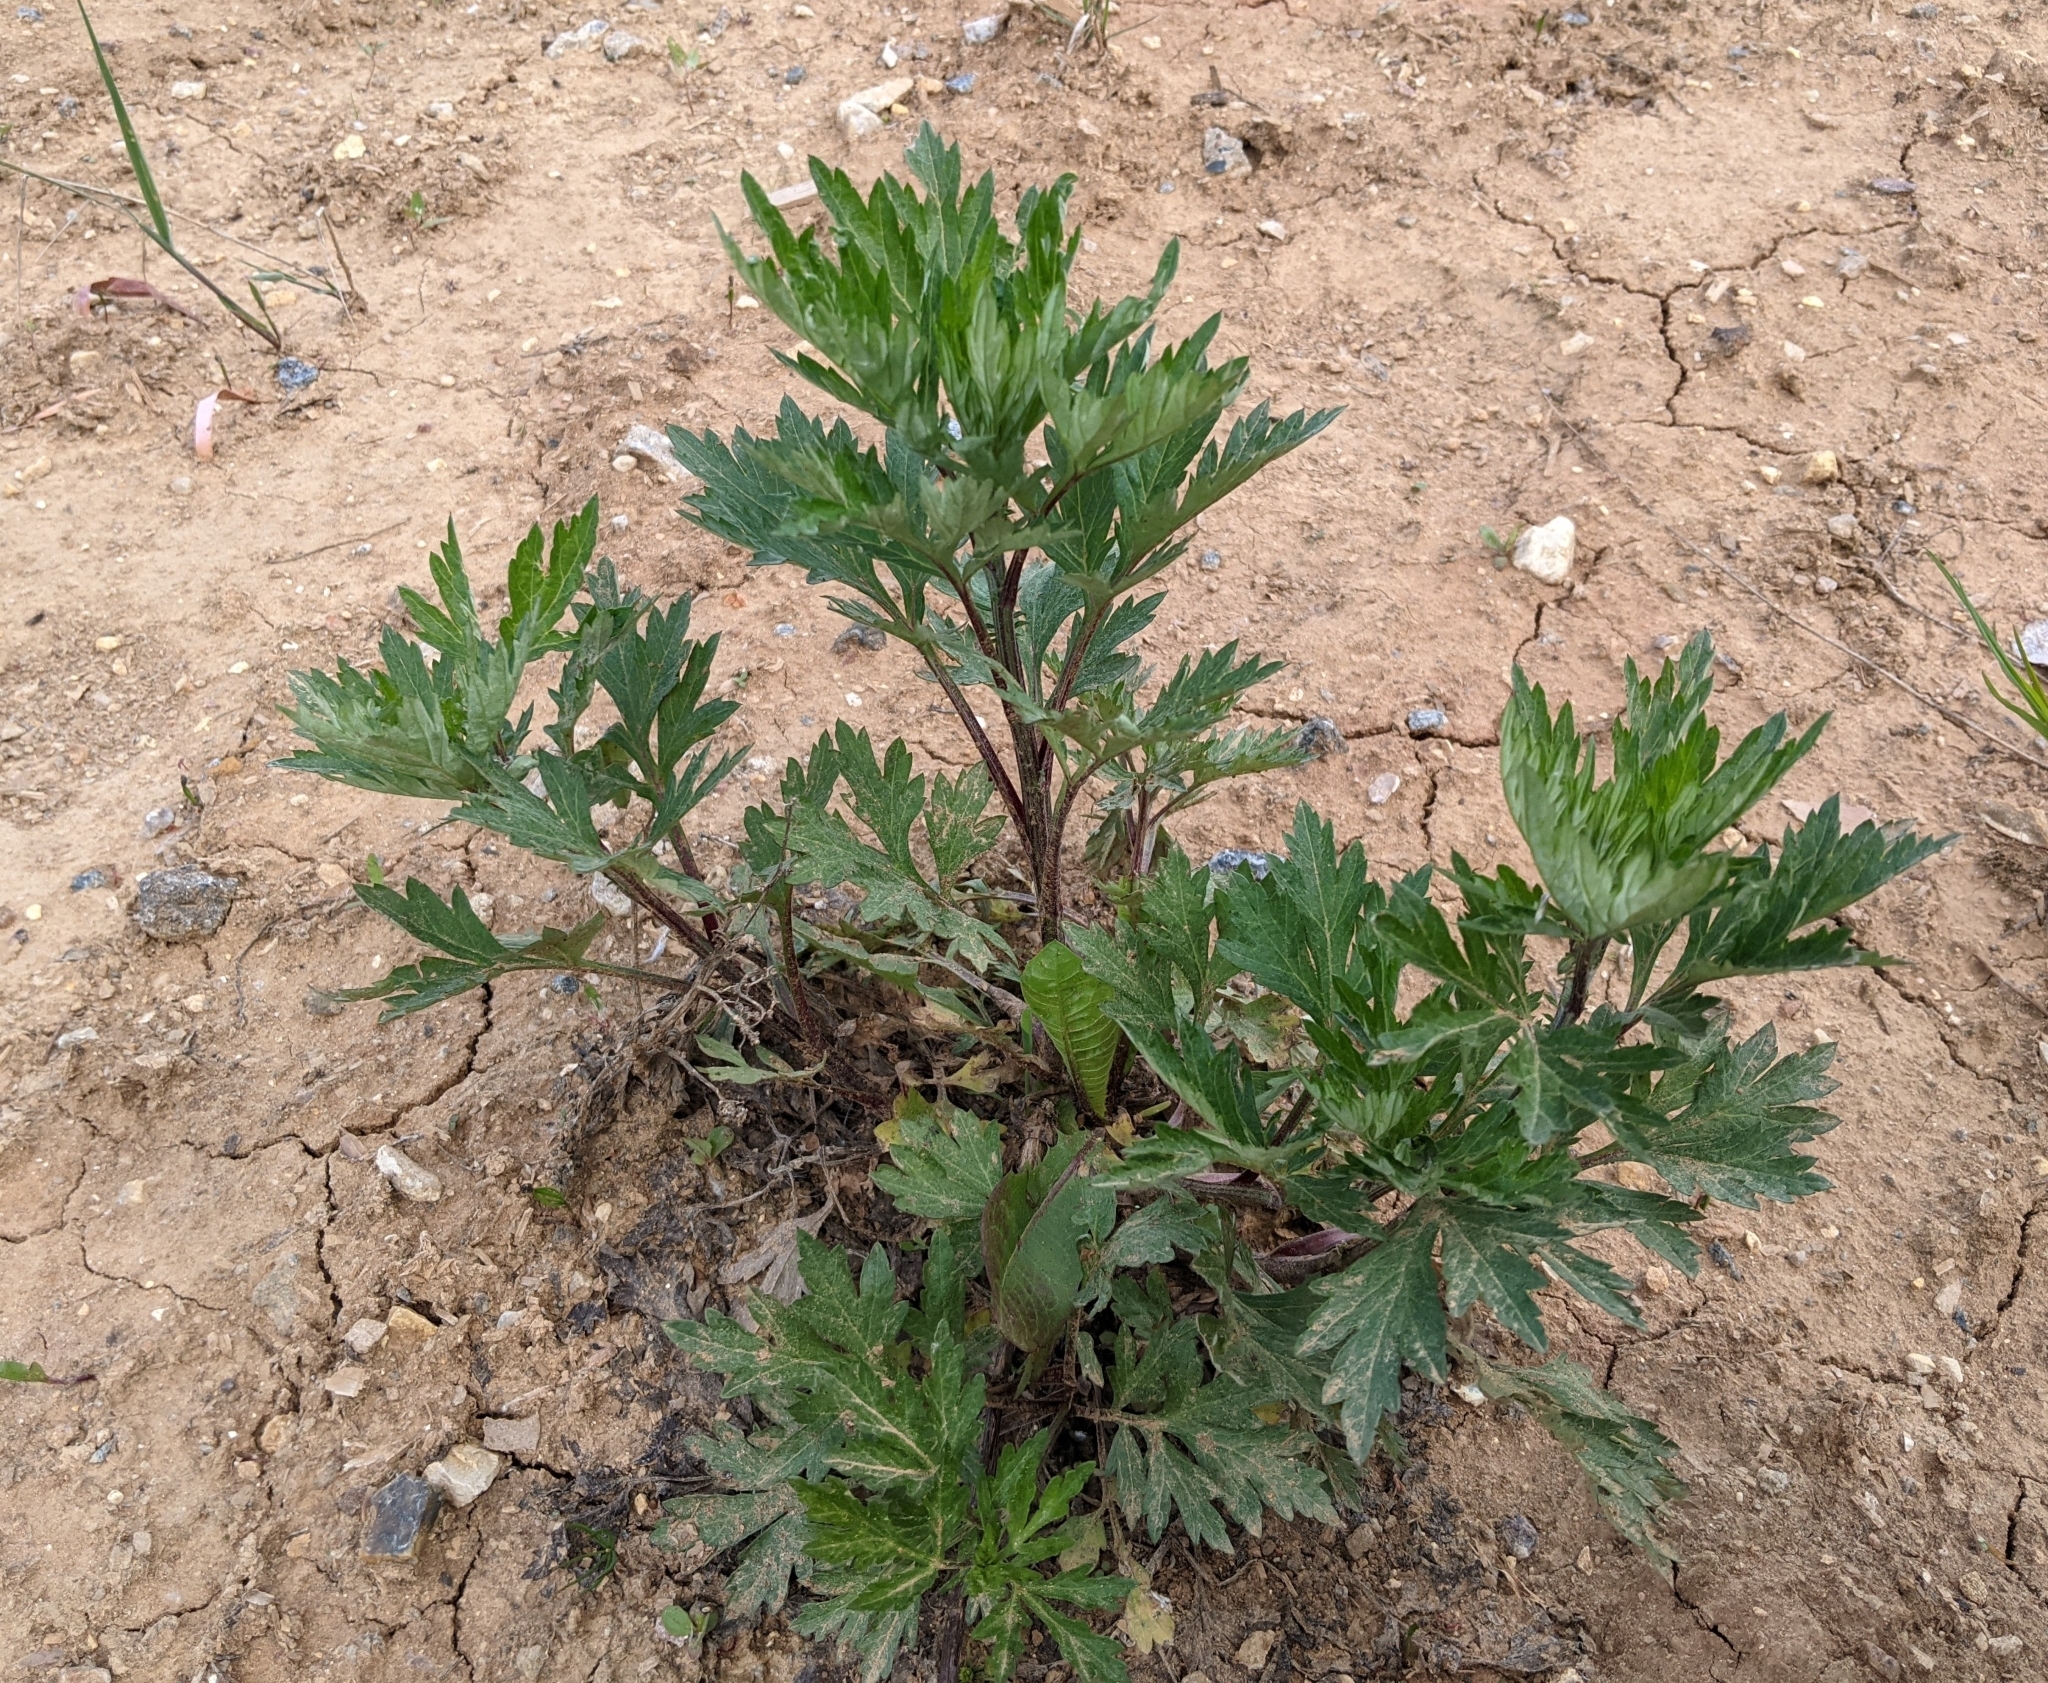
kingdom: Plantae
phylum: Tracheophyta
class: Magnoliopsida
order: Asterales
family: Asteraceae
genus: Artemisia
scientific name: Artemisia vulgaris
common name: Mugwort
